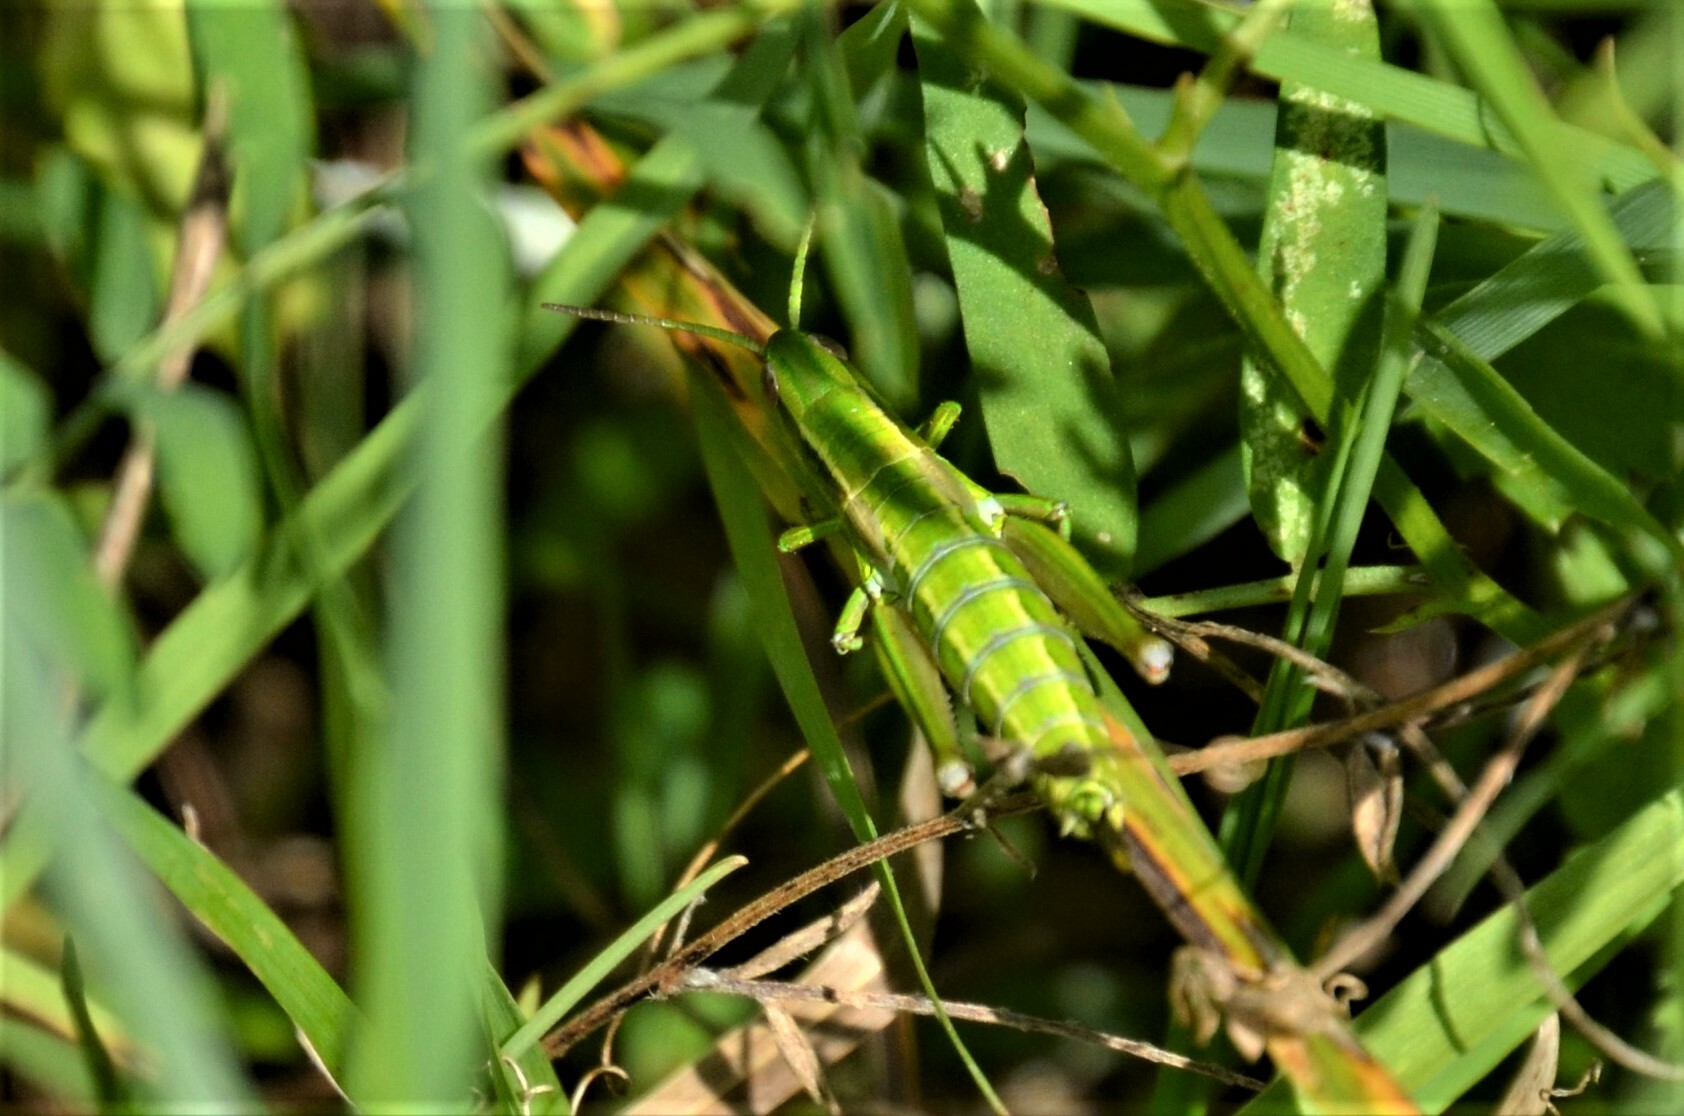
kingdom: Animalia
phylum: Arthropoda
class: Insecta
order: Orthoptera
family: Acrididae
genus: Euthystira
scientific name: Euthystira brachyptera
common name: Small gold grasshopper
